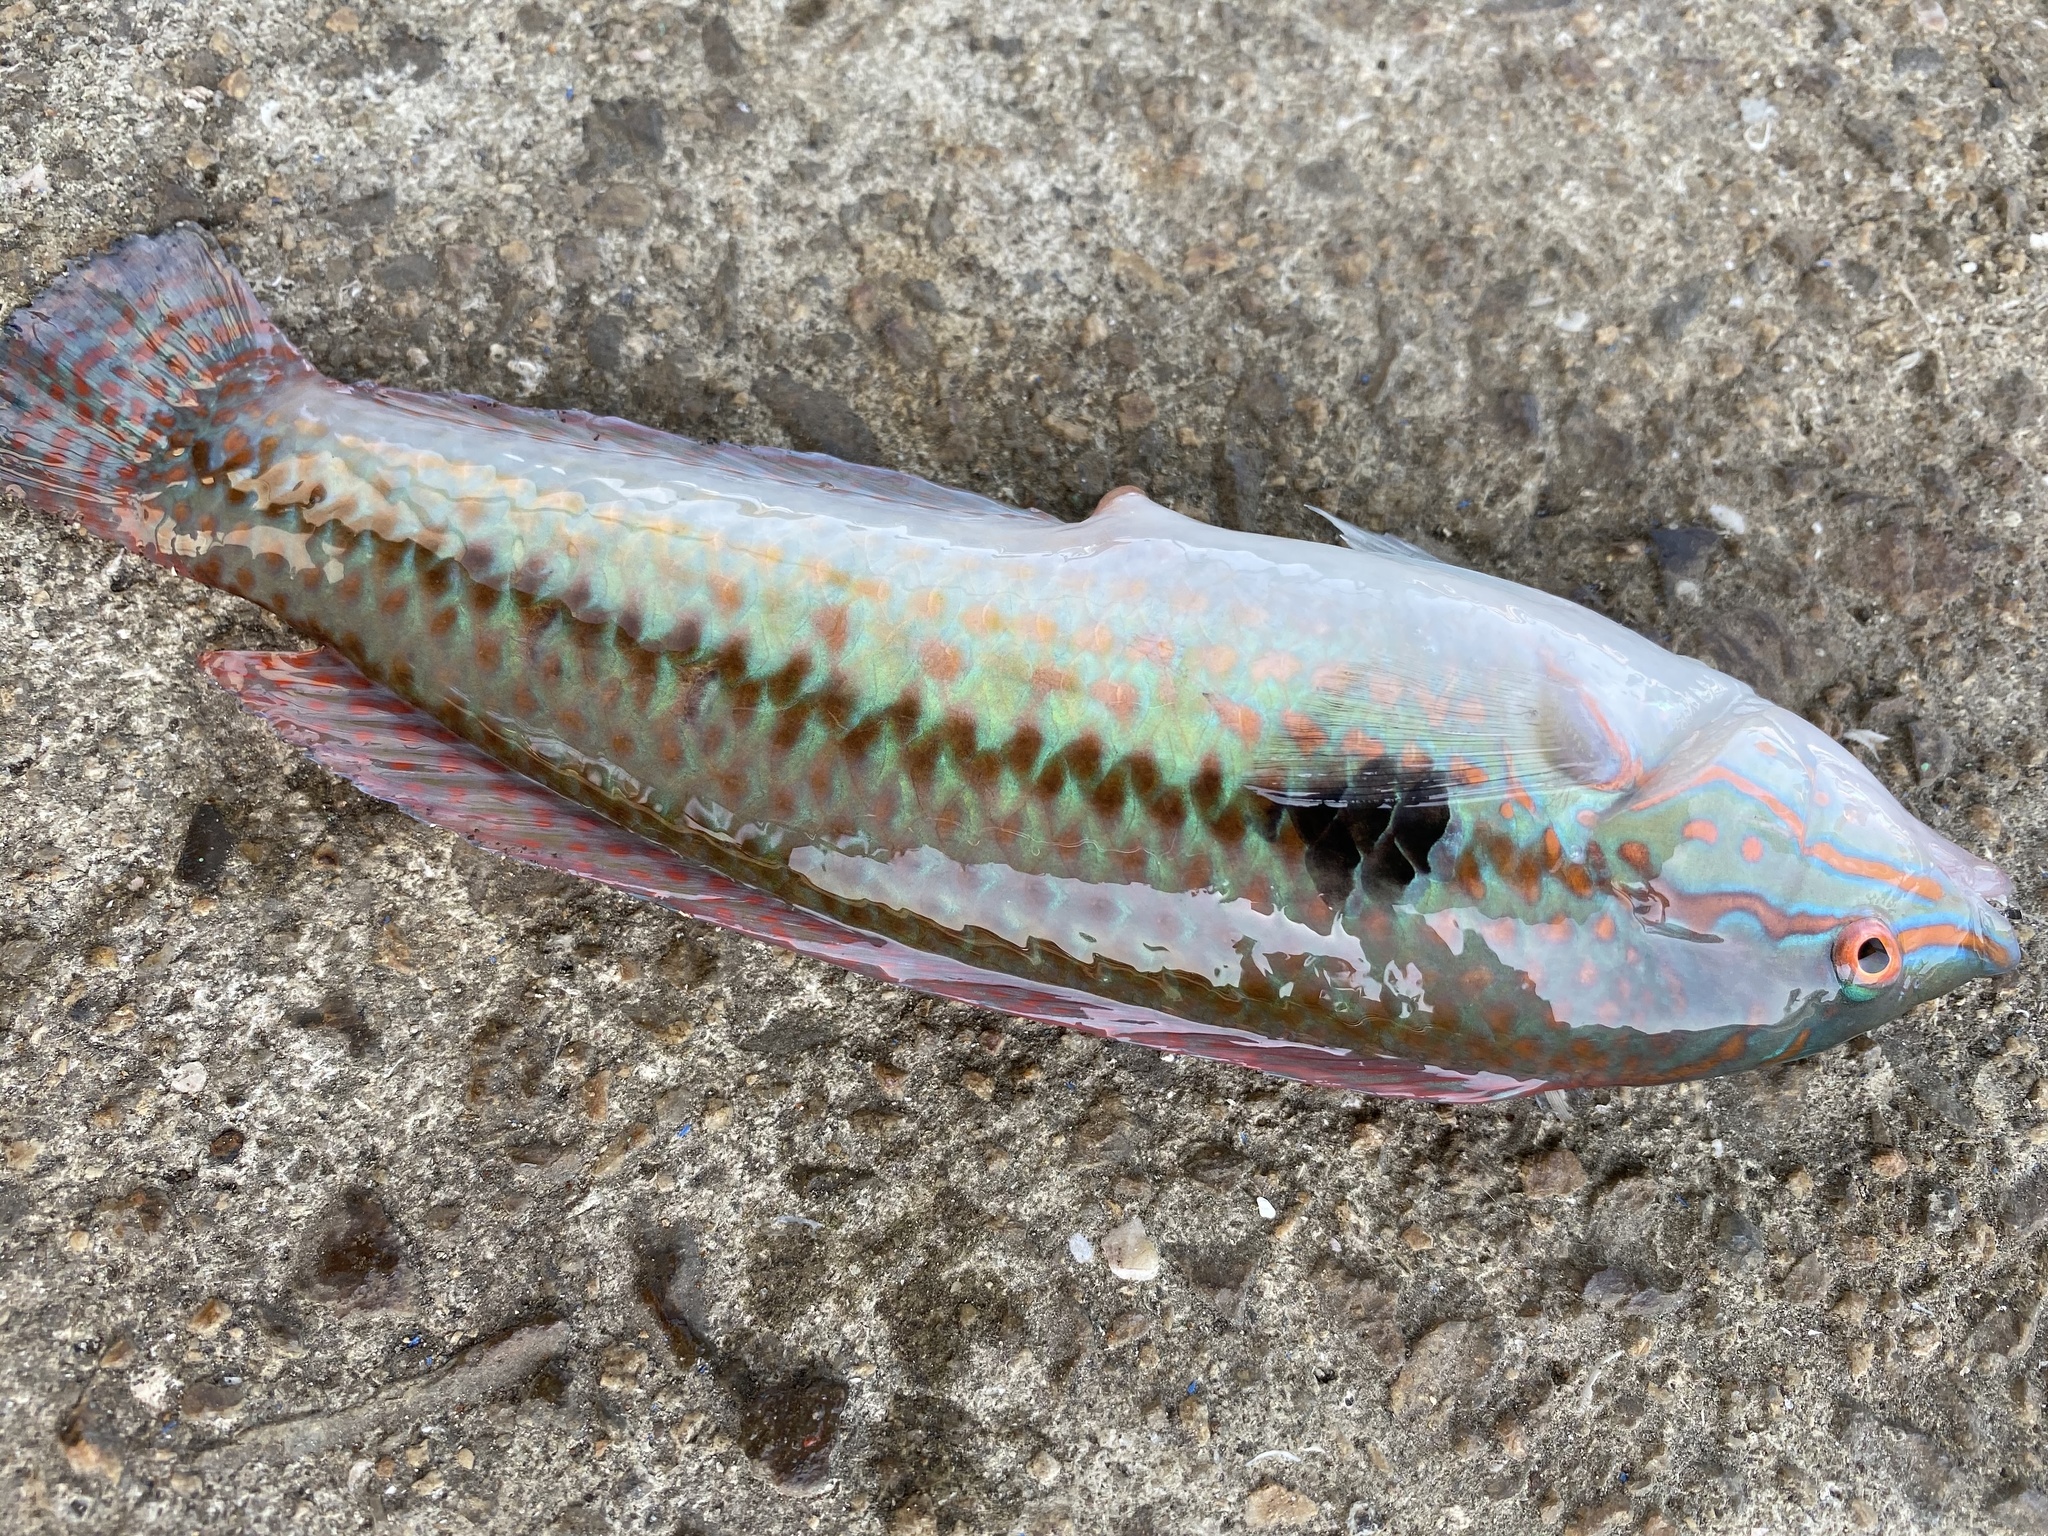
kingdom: Animalia
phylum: Chordata
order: Perciformes
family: Labridae
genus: Parajulis
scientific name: Parajulis poecilepterus
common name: Multicolorfin rainbowfish
